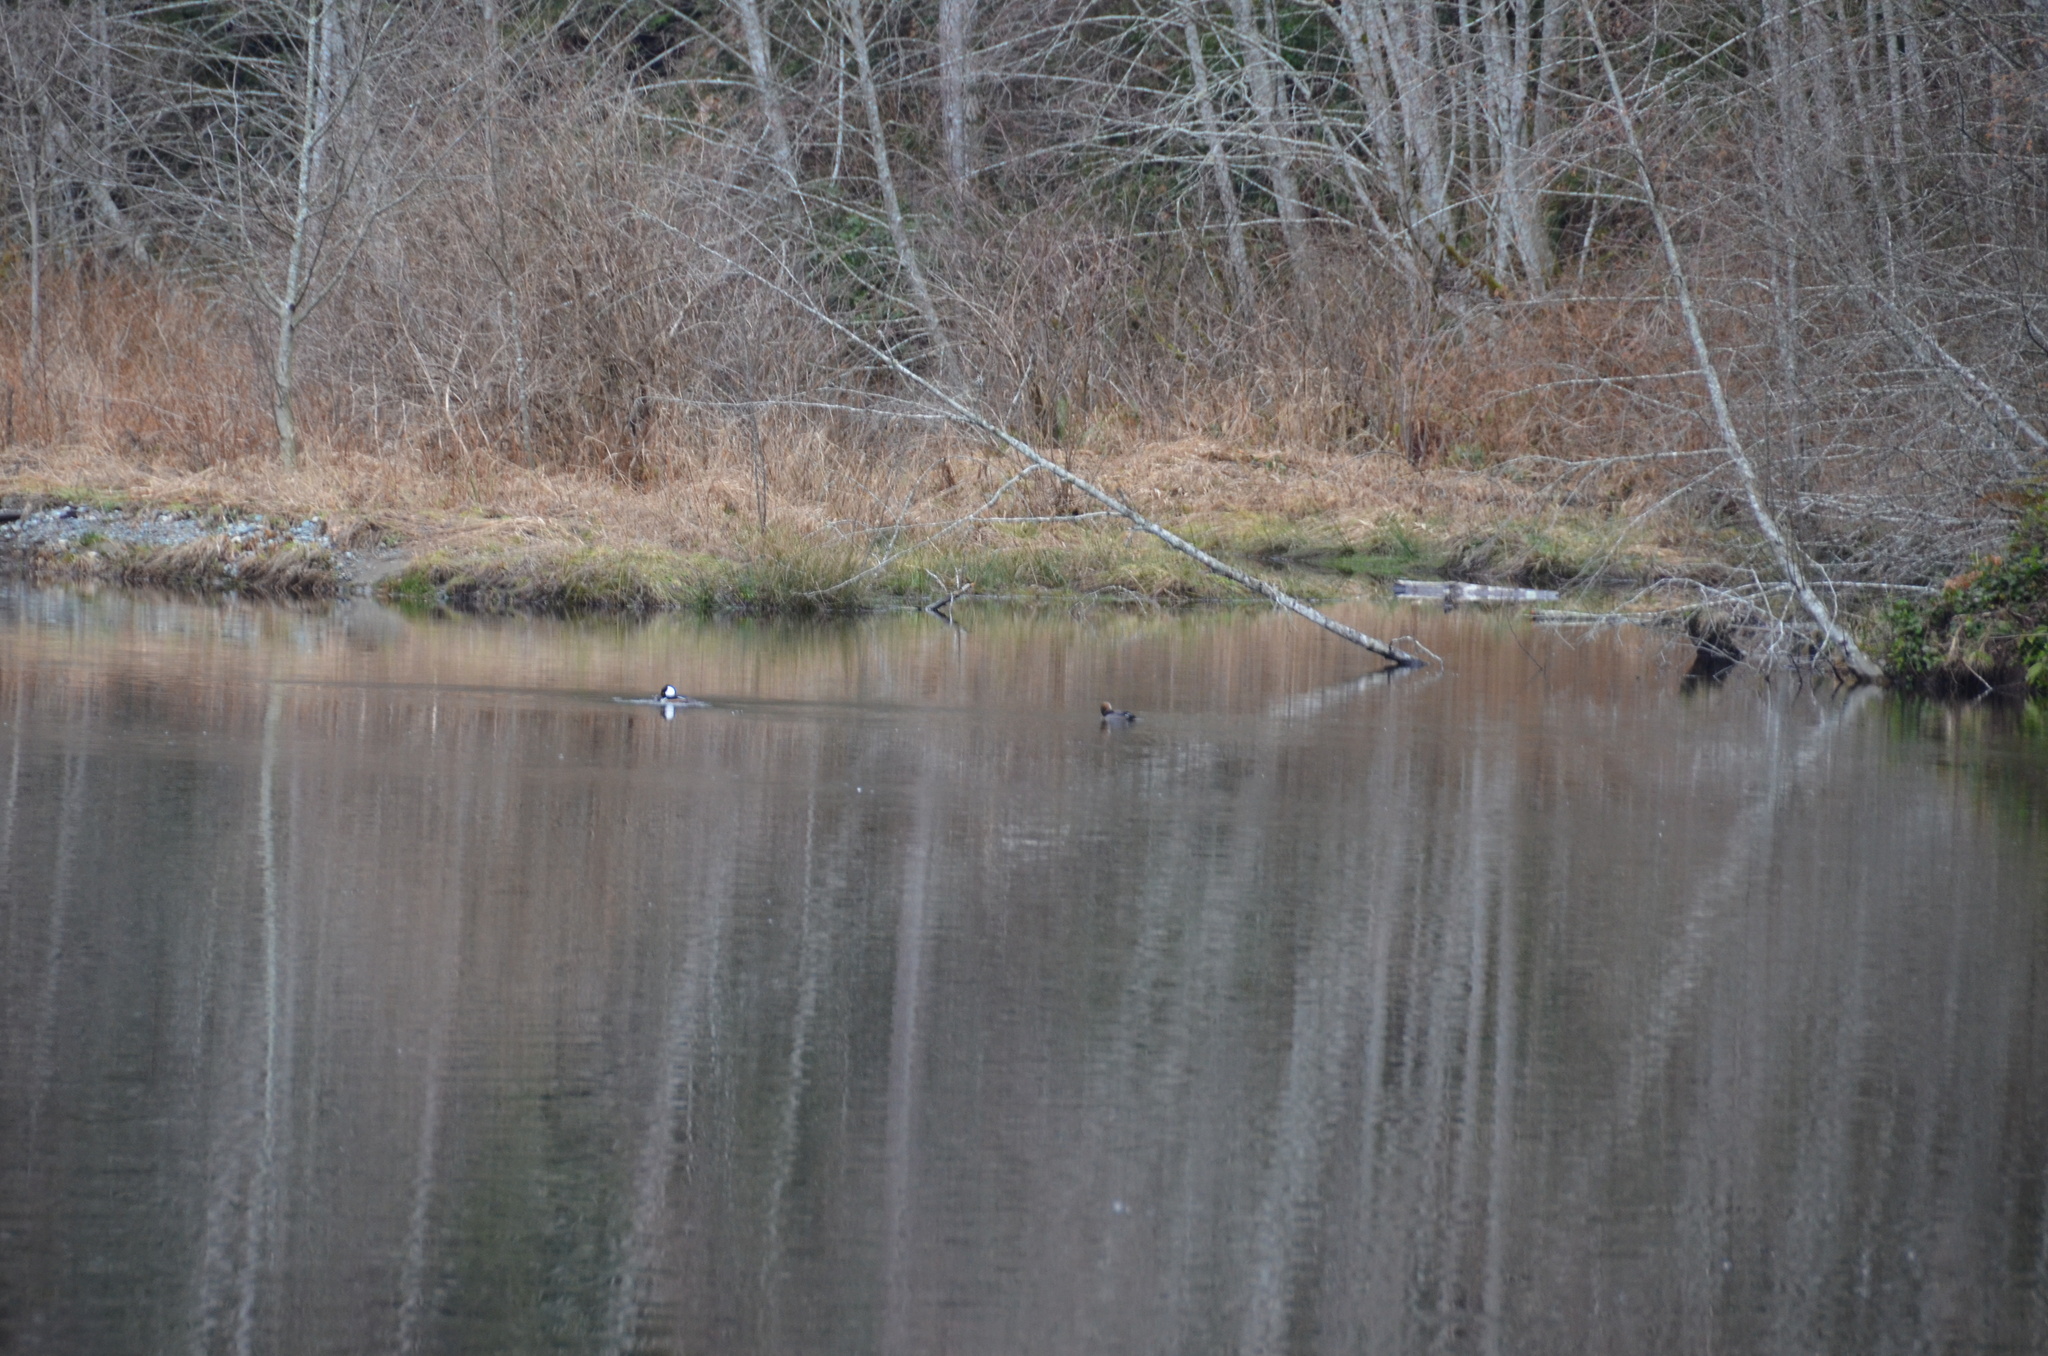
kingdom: Animalia
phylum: Chordata
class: Aves
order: Anseriformes
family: Anatidae
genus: Lophodytes
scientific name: Lophodytes cucullatus
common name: Hooded merganser
